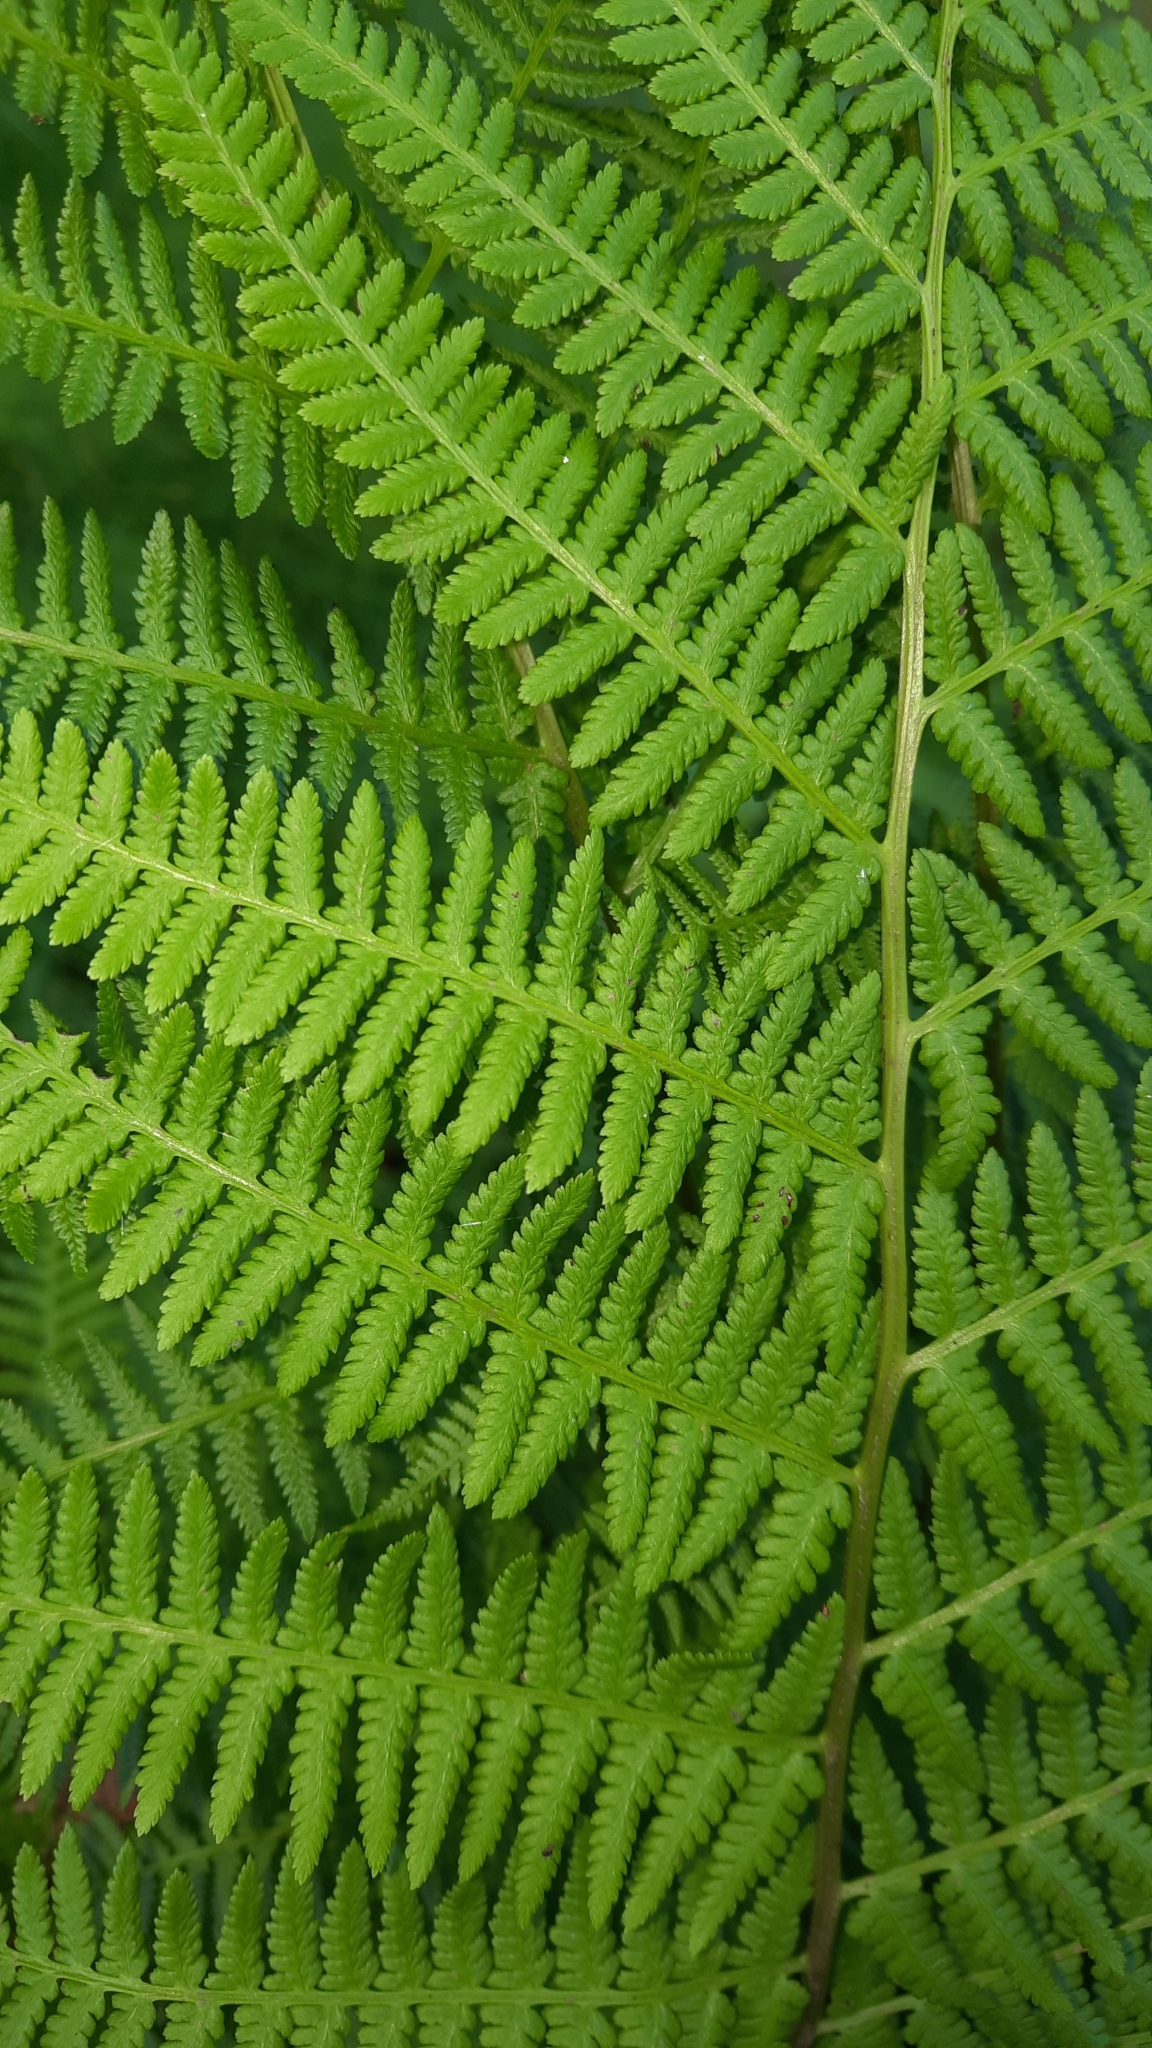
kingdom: Plantae
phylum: Tracheophyta
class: Polypodiopsida
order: Polypodiales
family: Athyriaceae
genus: Athyrium
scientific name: Athyrium filix-femina
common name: Lady fern
